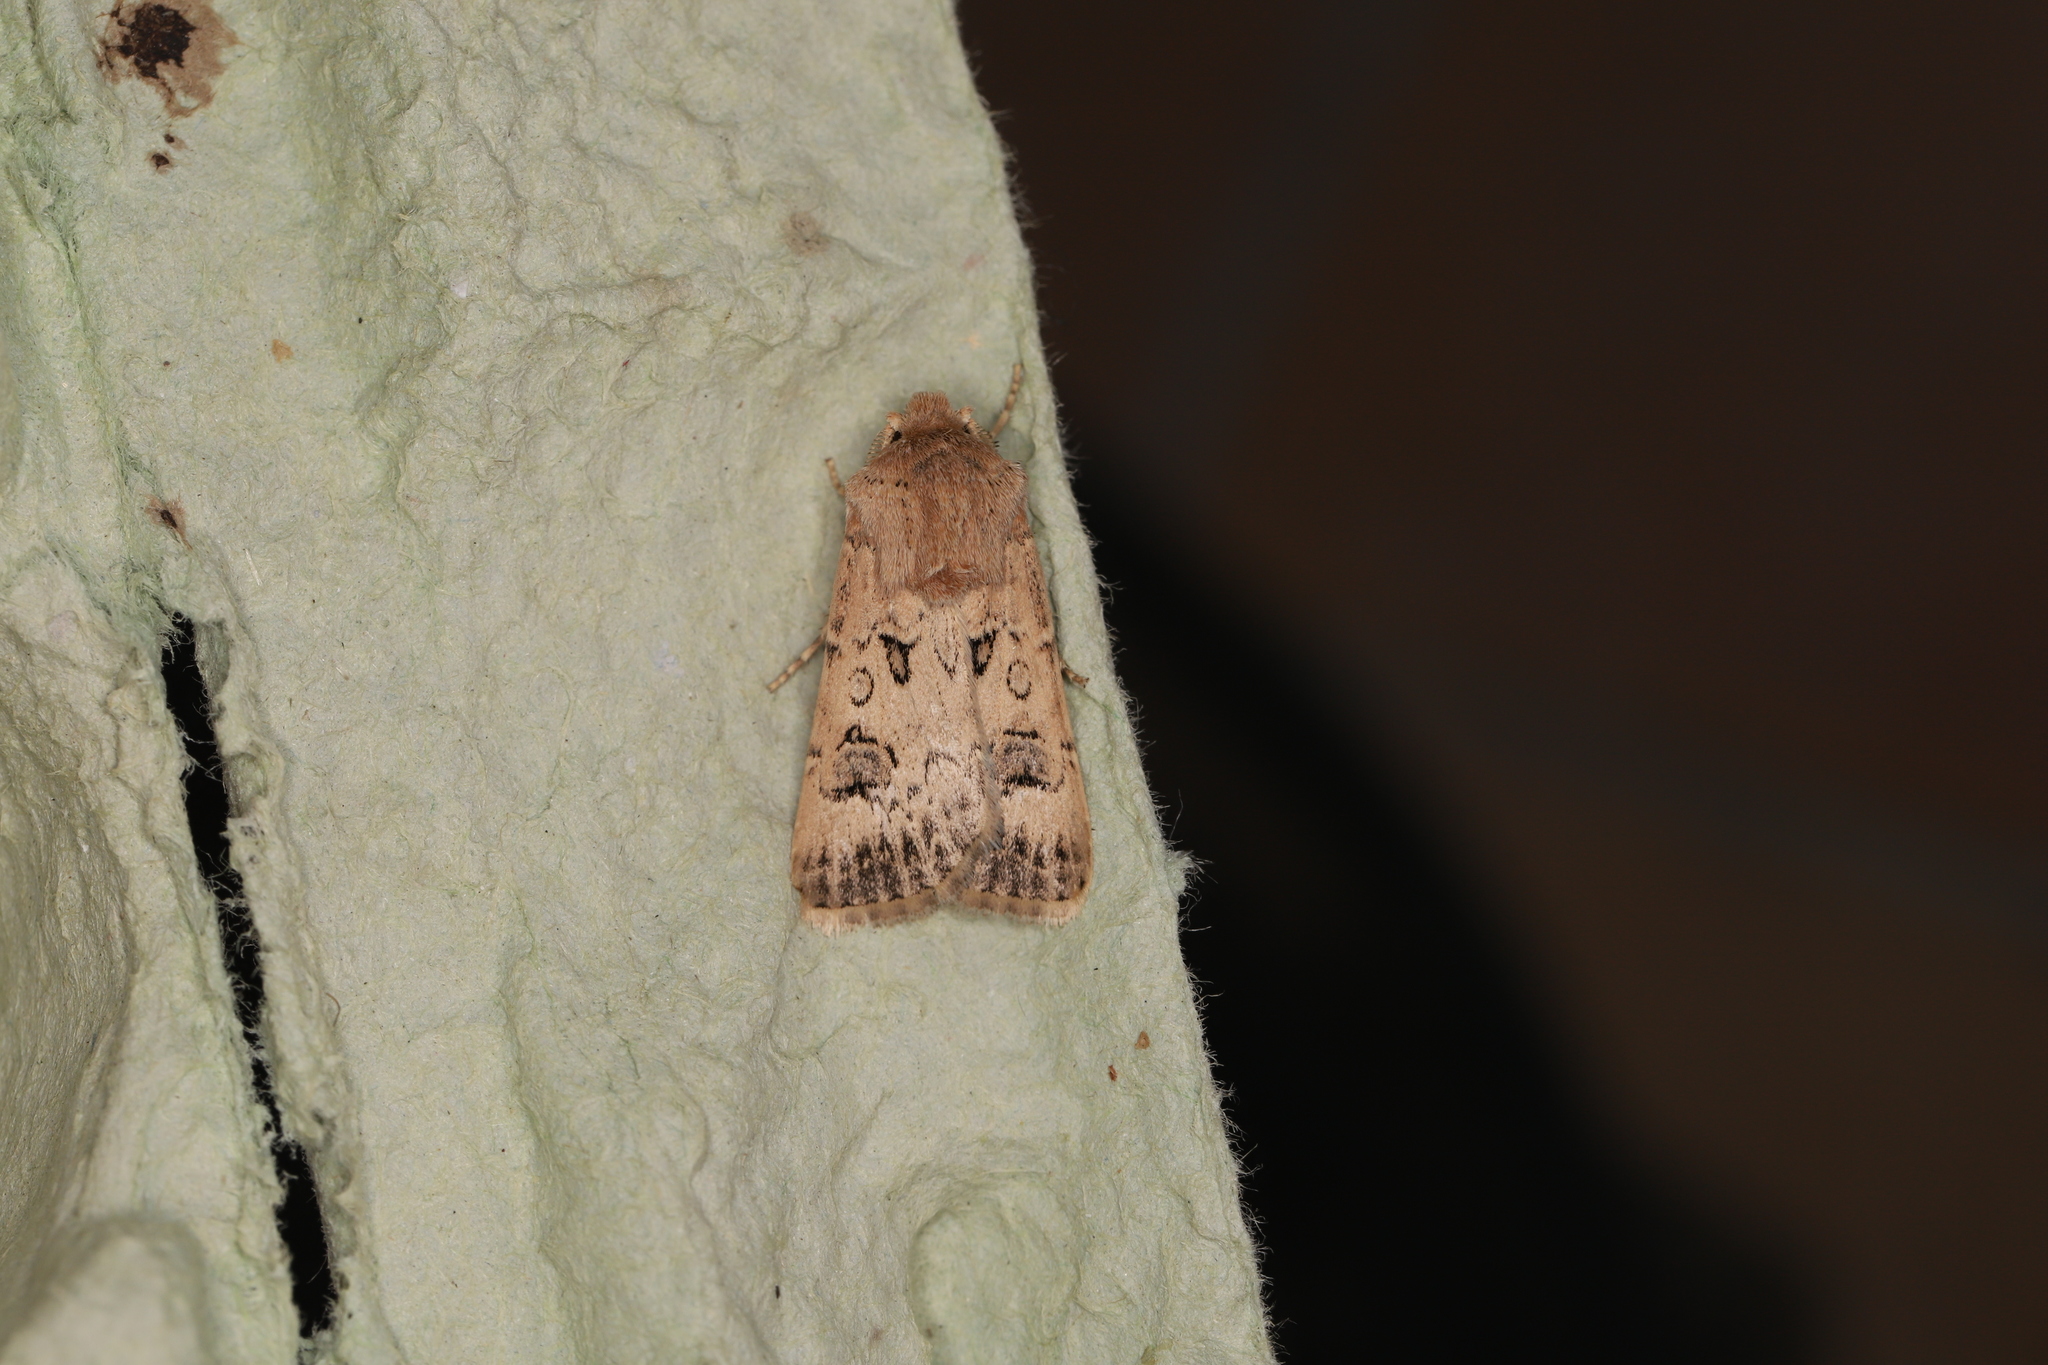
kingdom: Animalia
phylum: Arthropoda
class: Insecta
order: Lepidoptera
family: Noctuidae
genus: Agrotis
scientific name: Agrotis bigramma
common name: Great dart
